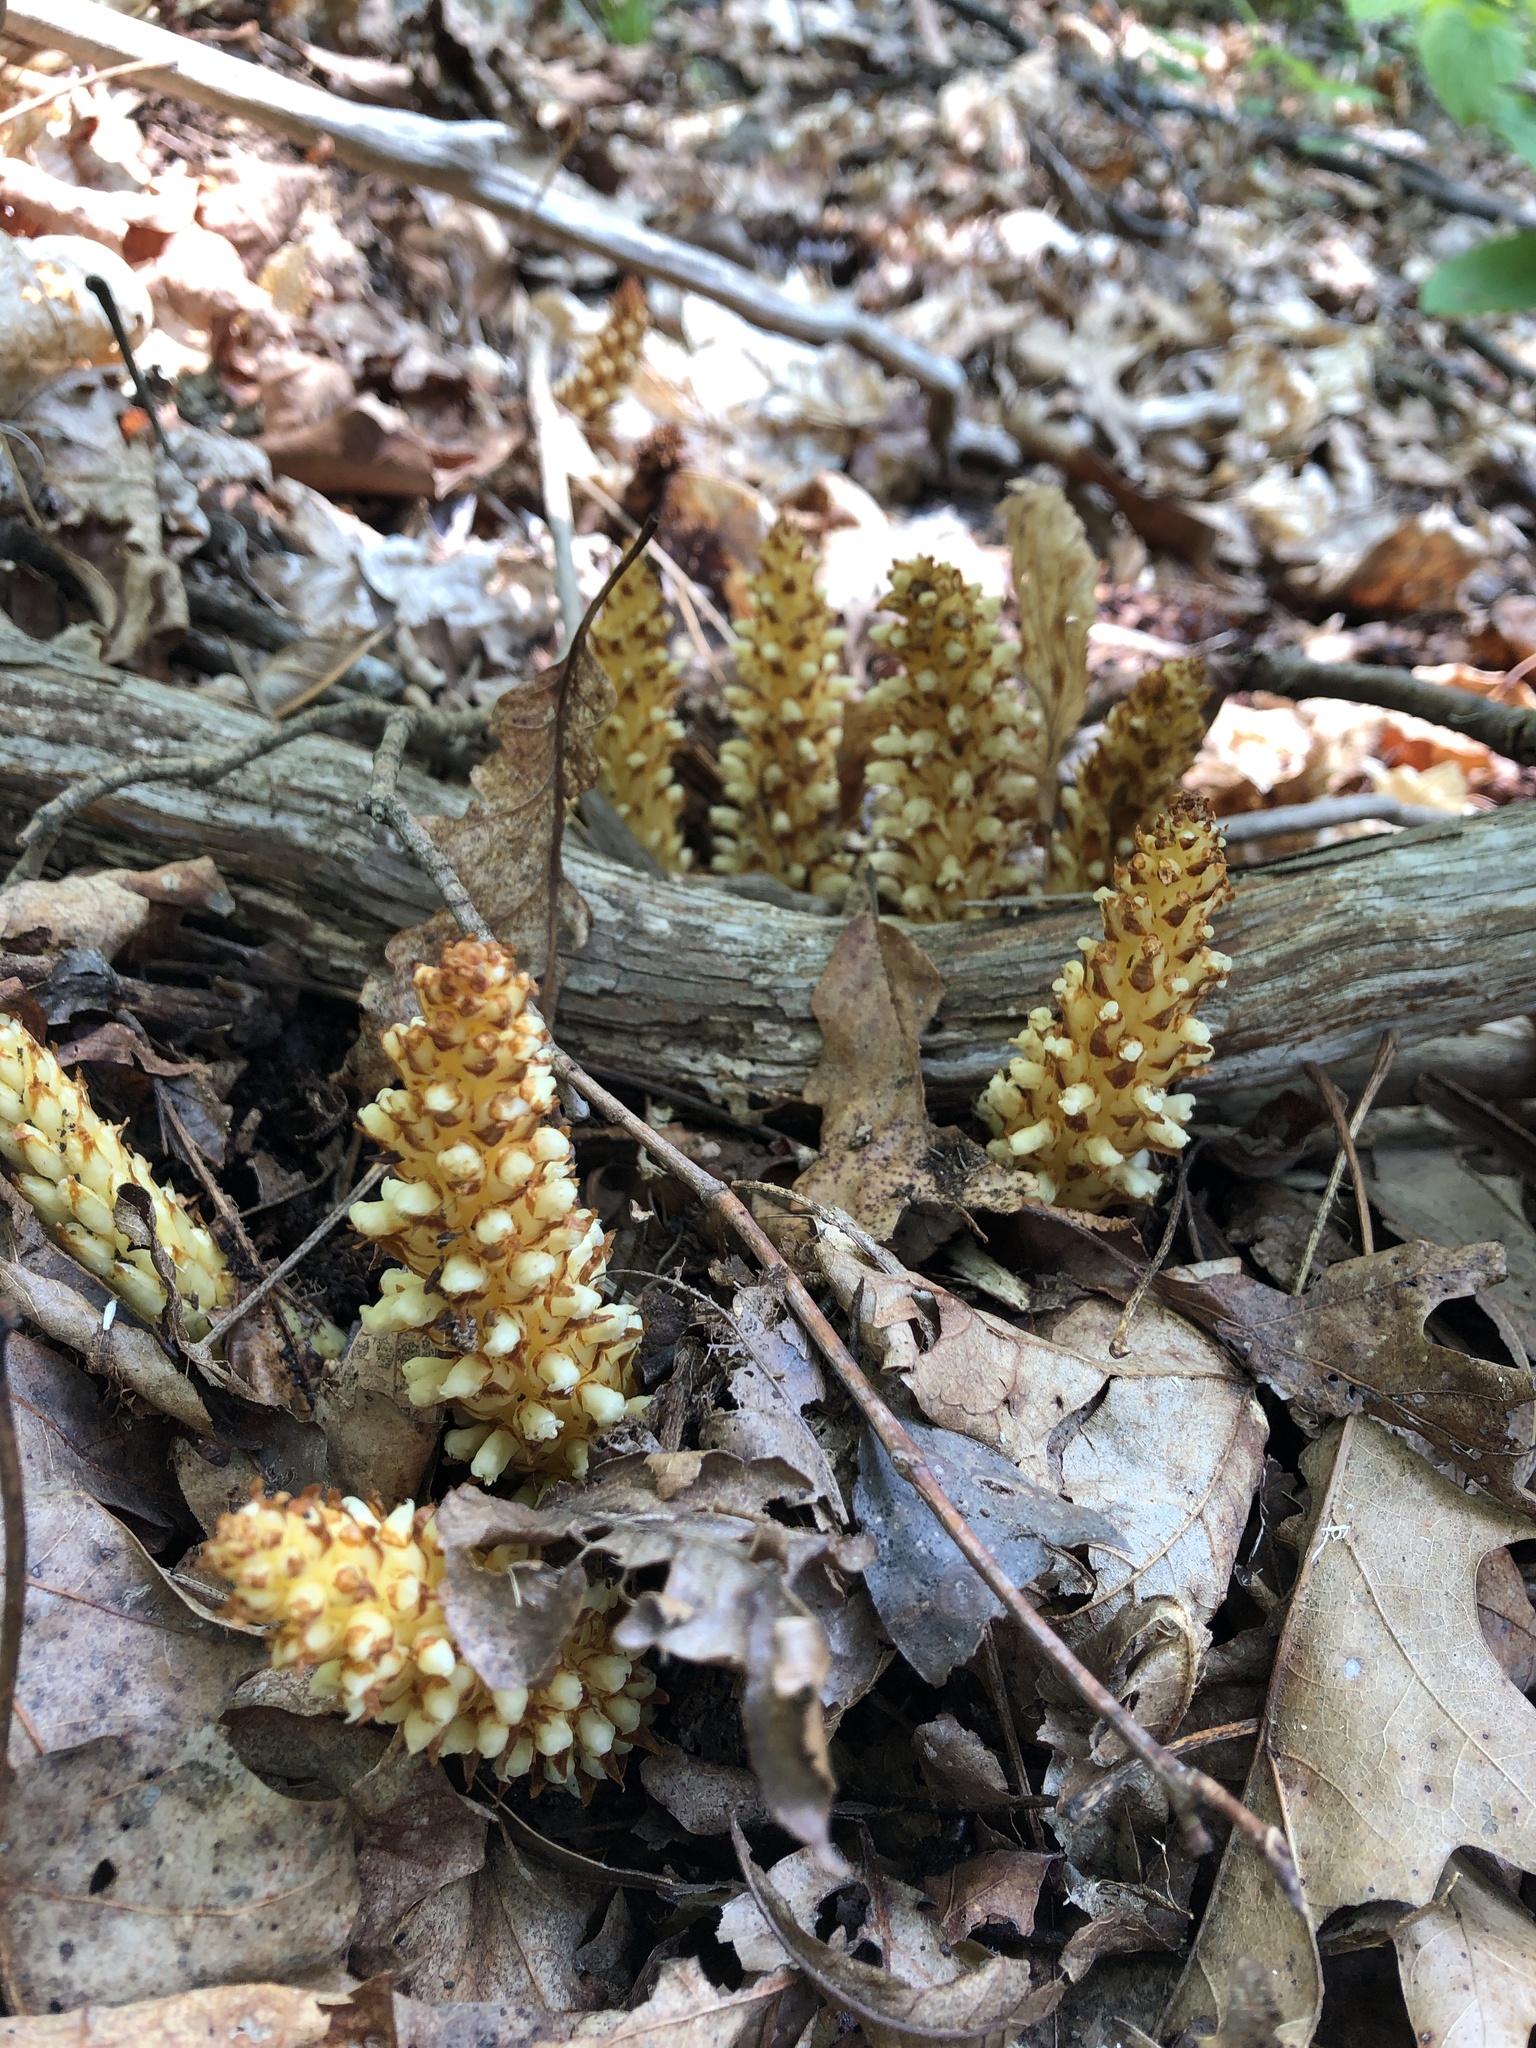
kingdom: Plantae
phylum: Tracheophyta
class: Magnoliopsida
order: Lamiales
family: Orobanchaceae
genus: Conopholis
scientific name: Conopholis americana
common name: American cancer-root
